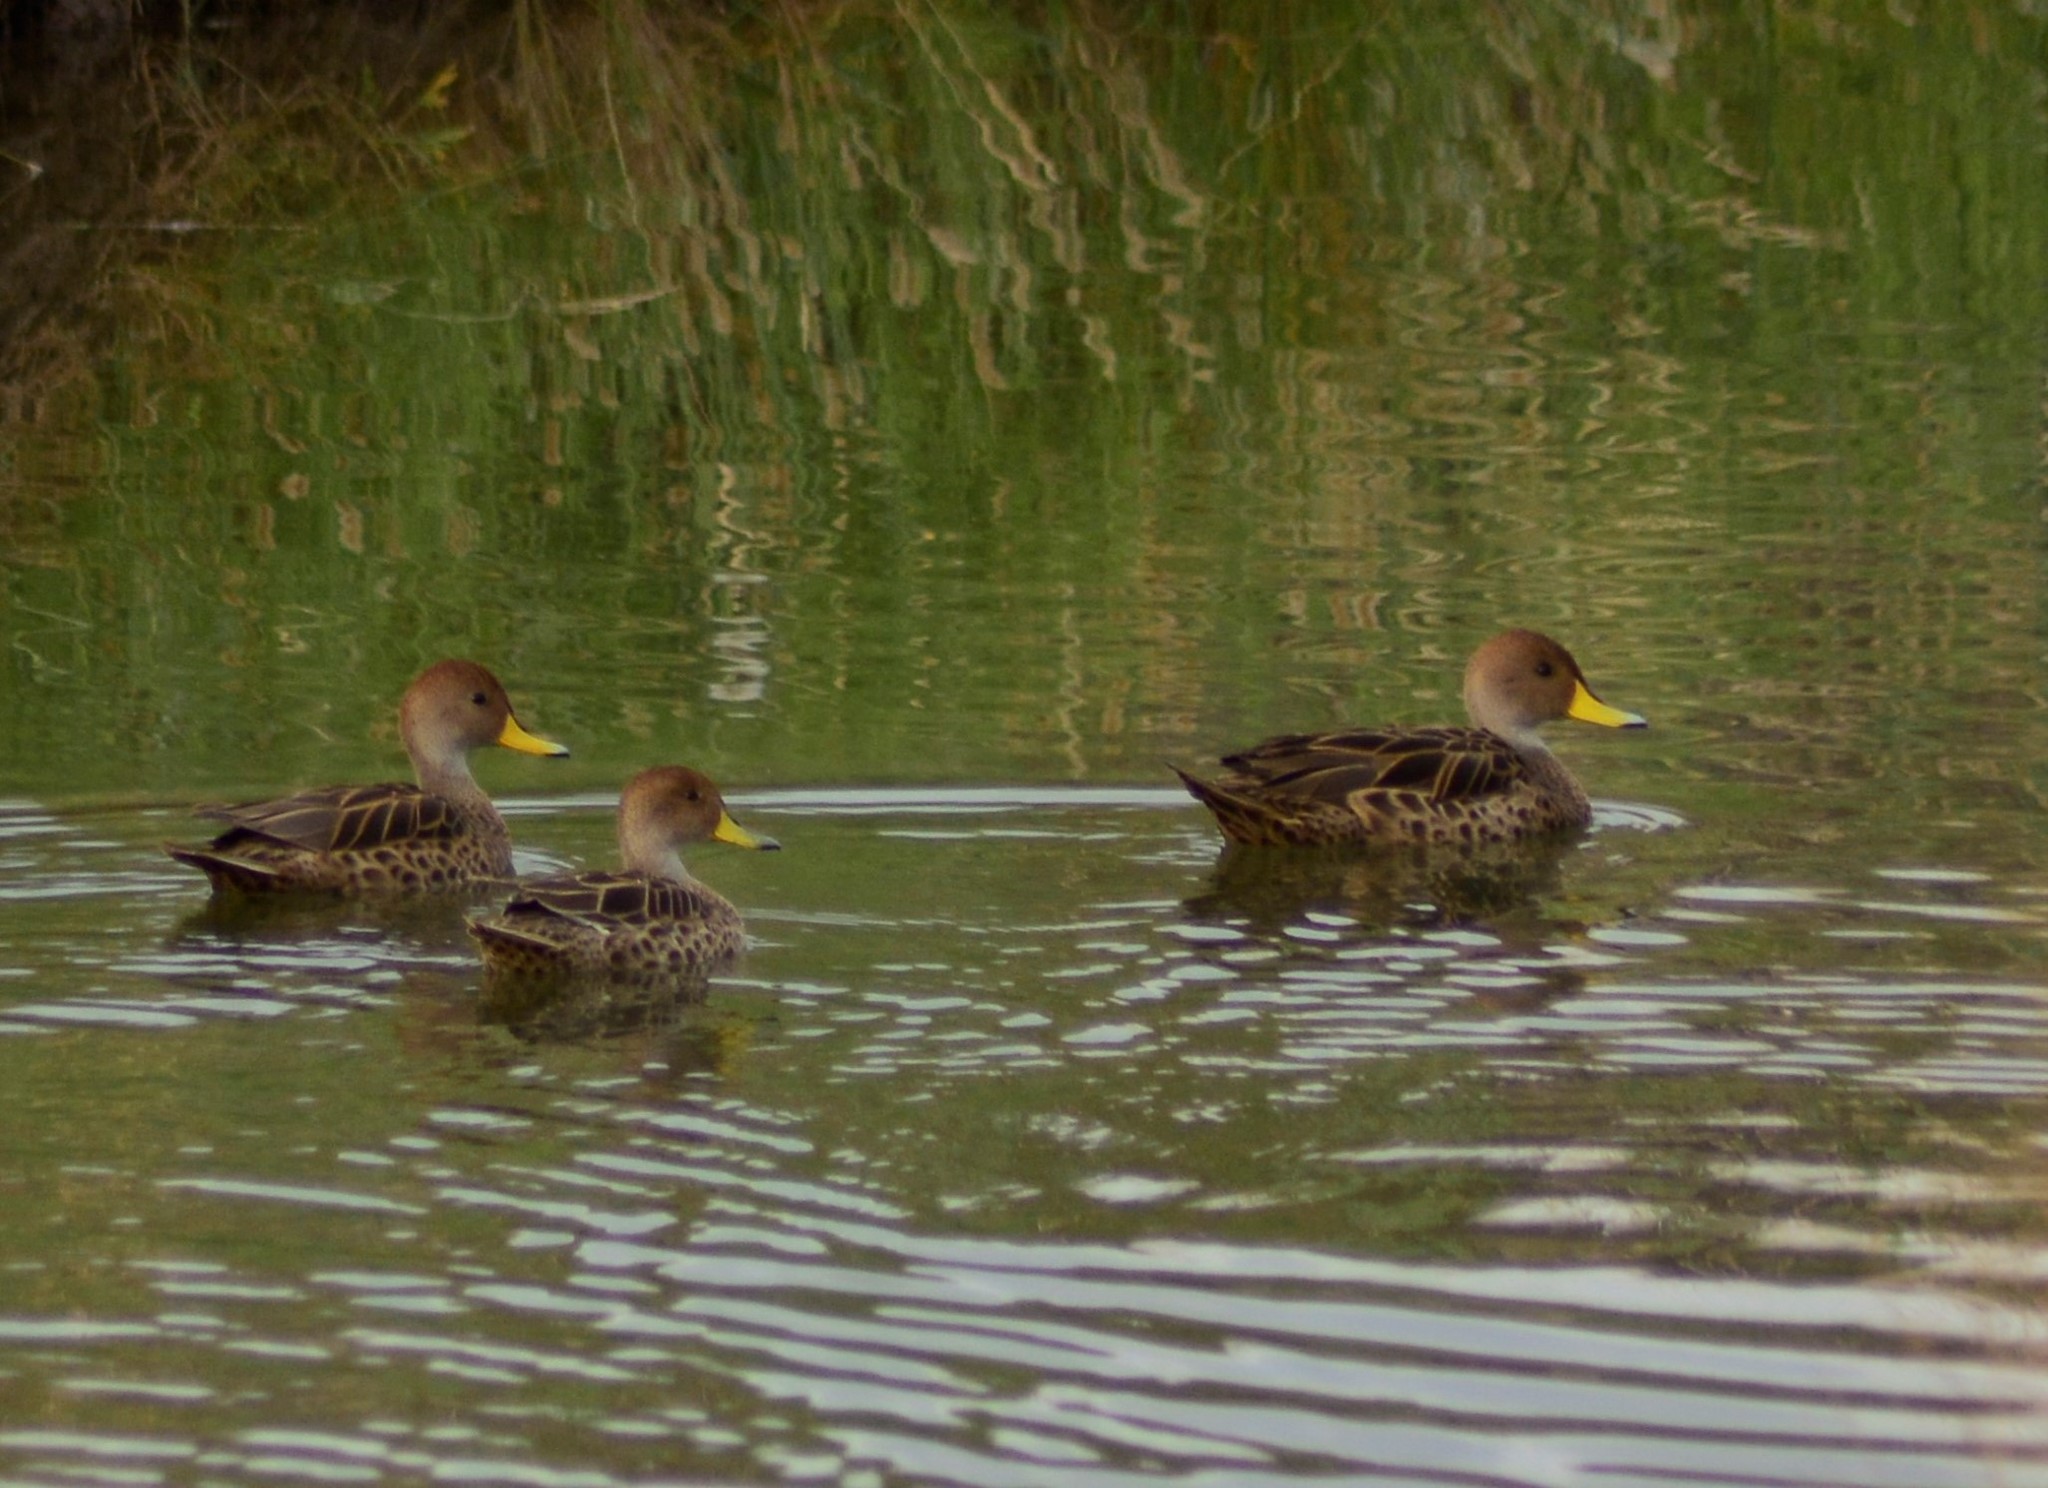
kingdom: Animalia
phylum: Chordata
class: Aves
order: Anseriformes
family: Anatidae
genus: Anas
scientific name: Anas georgica
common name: Yellow-billed pintail
